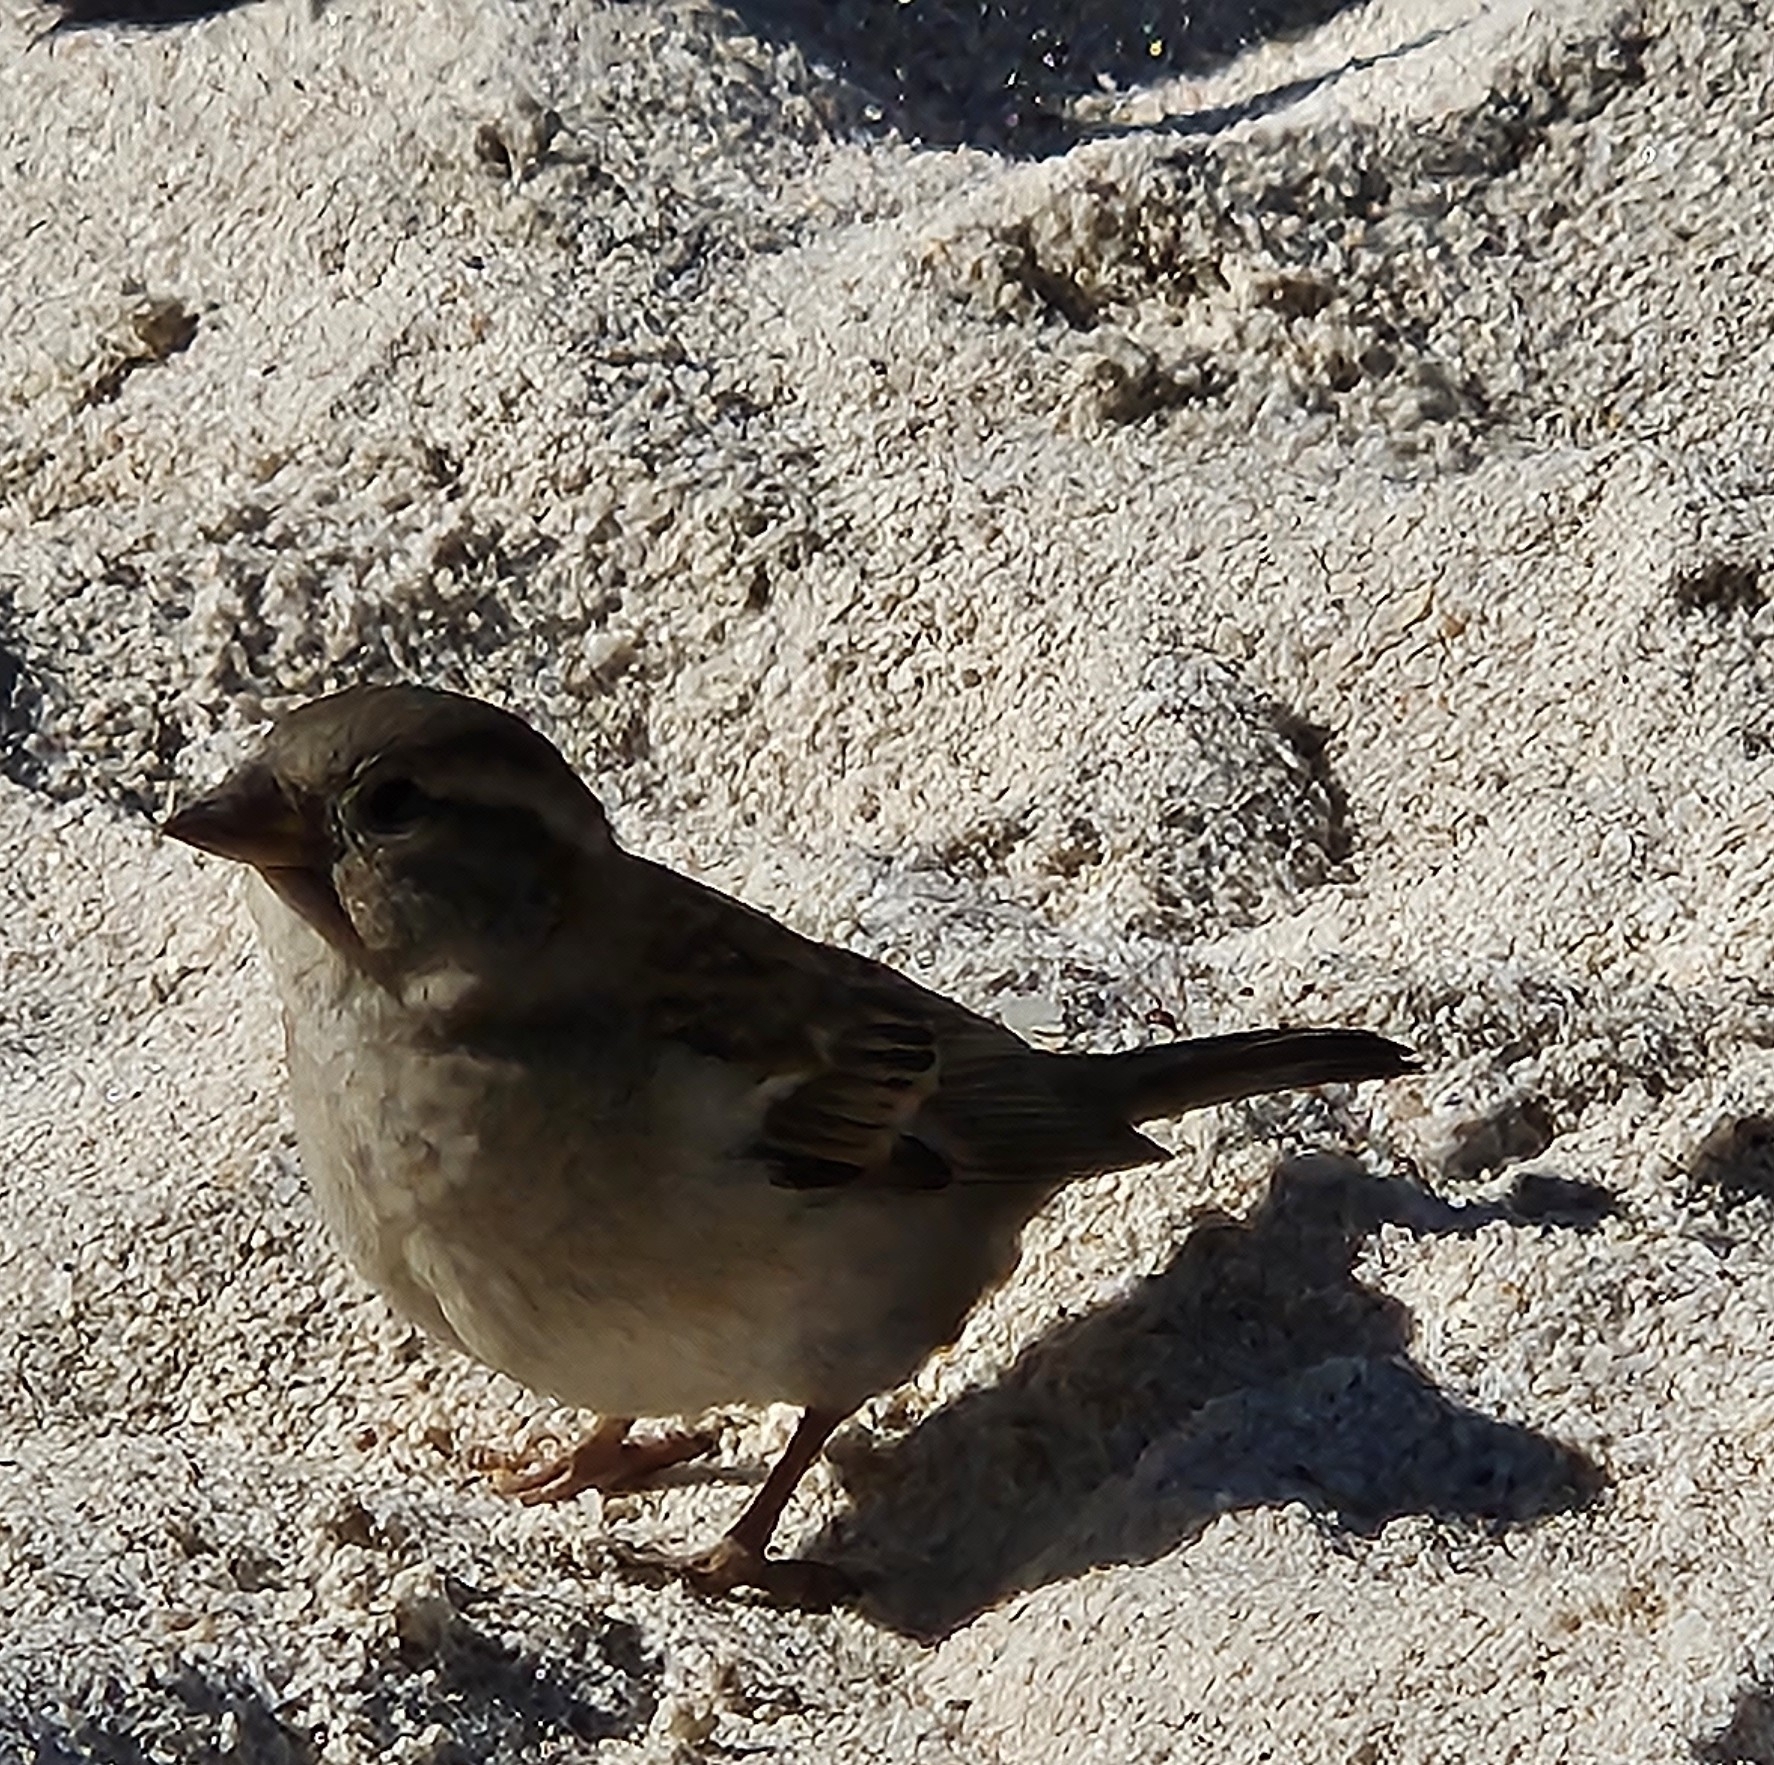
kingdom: Animalia
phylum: Chordata
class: Aves
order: Passeriformes
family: Passeridae
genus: Passer
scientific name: Passer domesticus
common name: House sparrow
